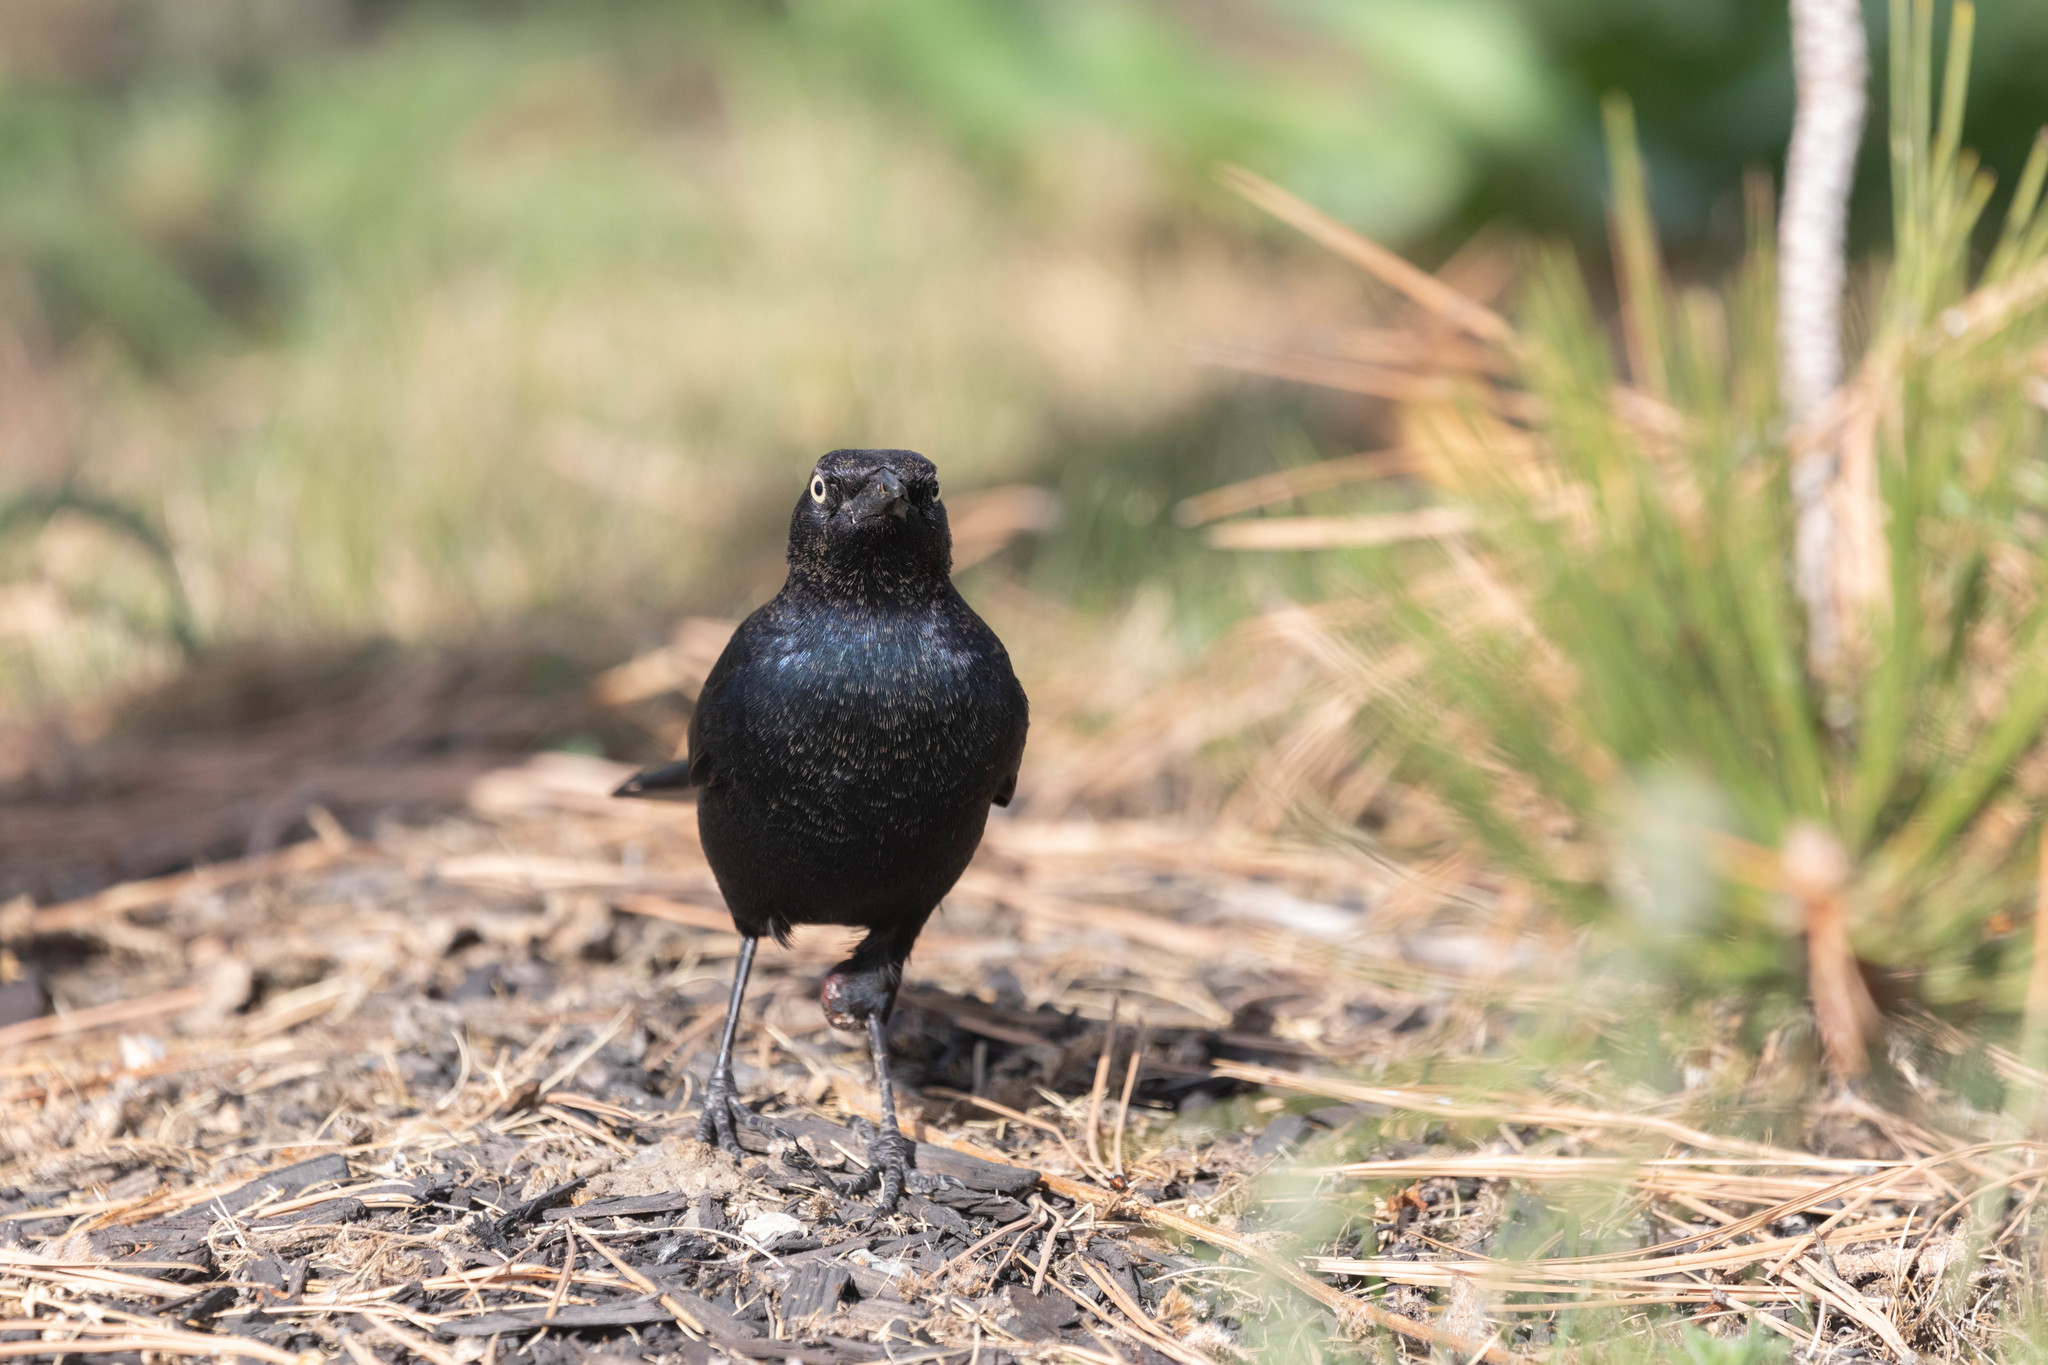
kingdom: Animalia
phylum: Chordata
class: Aves
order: Passeriformes
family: Icteridae
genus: Euphagus
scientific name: Euphagus cyanocephalus
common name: Brewer's blackbird
